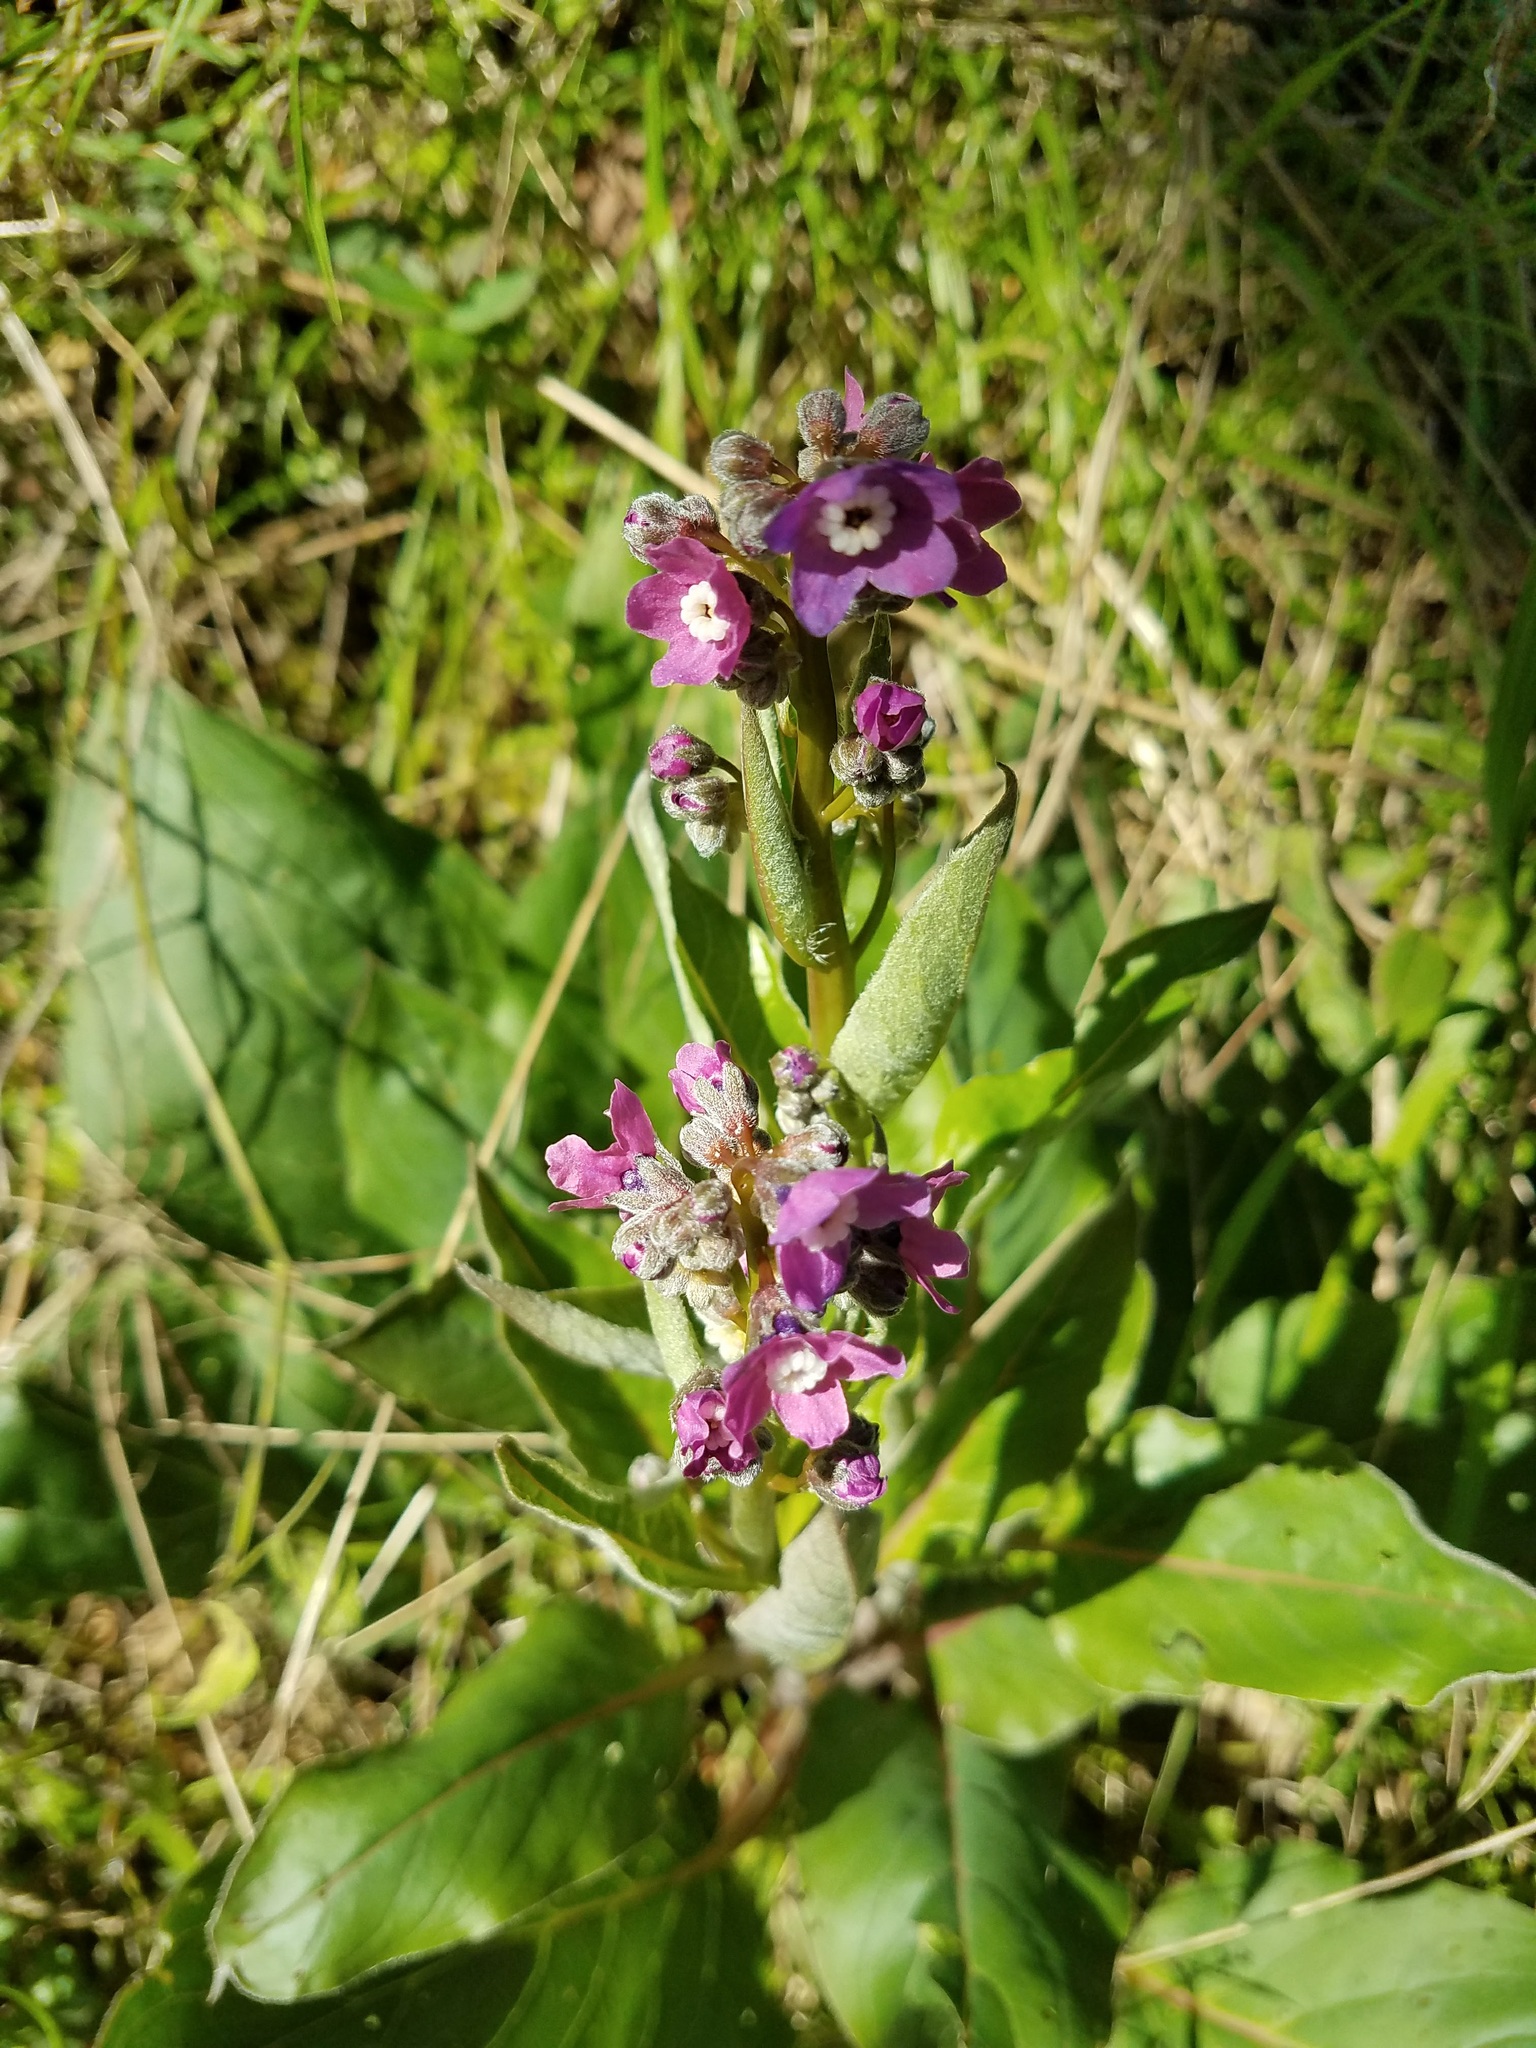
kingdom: Plantae
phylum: Tracheophyta
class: Magnoliopsida
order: Boraginales
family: Boraginaceae
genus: Adelinia
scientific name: Adelinia grande
